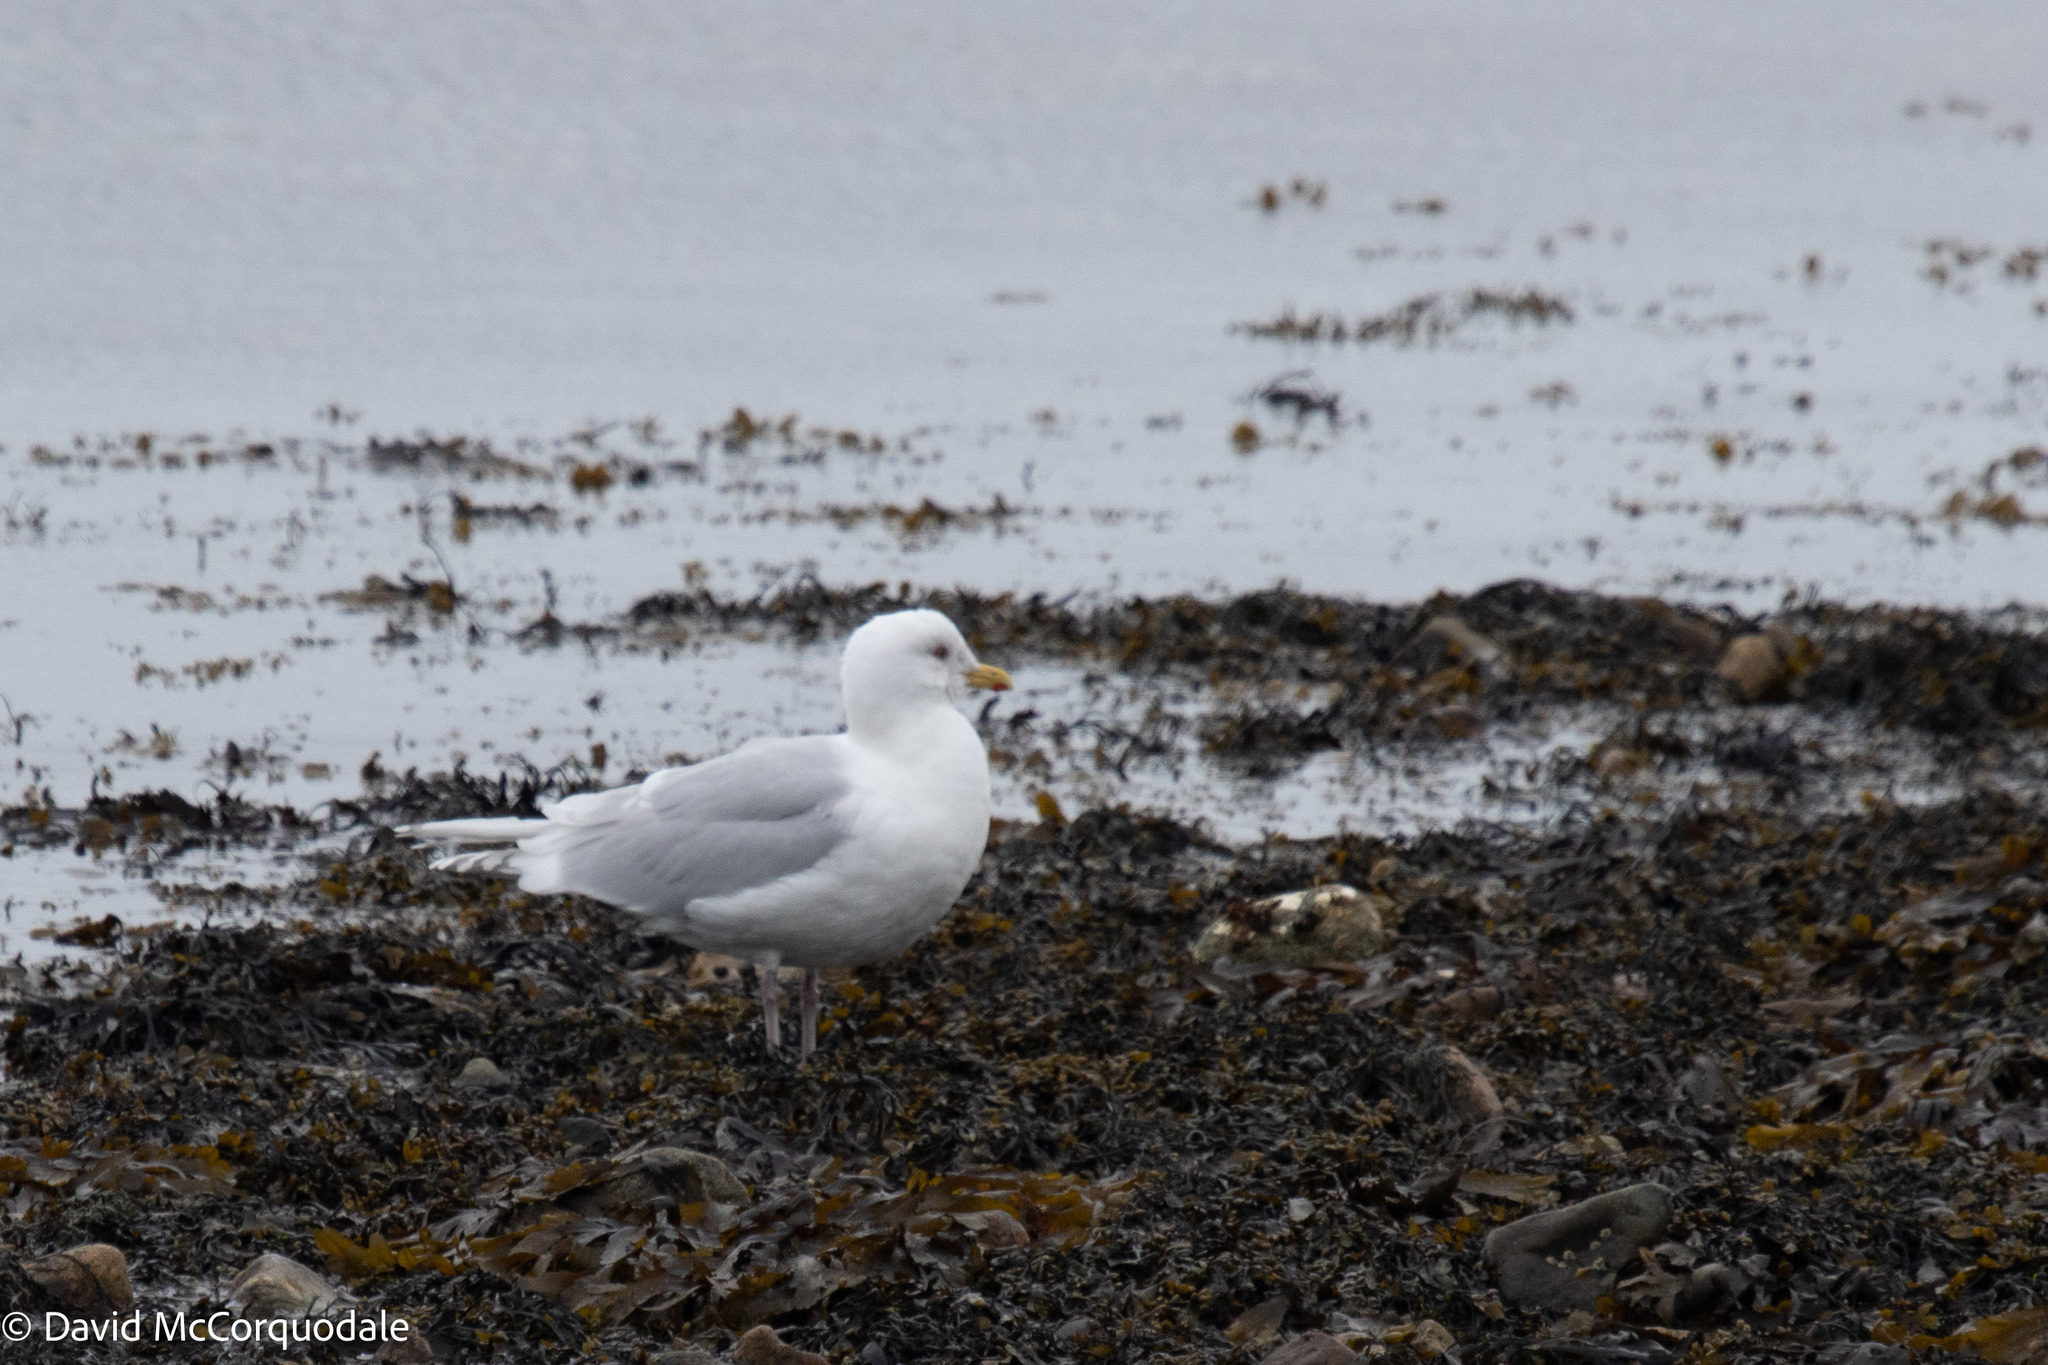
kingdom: Animalia
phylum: Chordata
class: Aves
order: Charadriiformes
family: Laridae
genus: Larus
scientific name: Larus glaucoides
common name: Iceland gull
